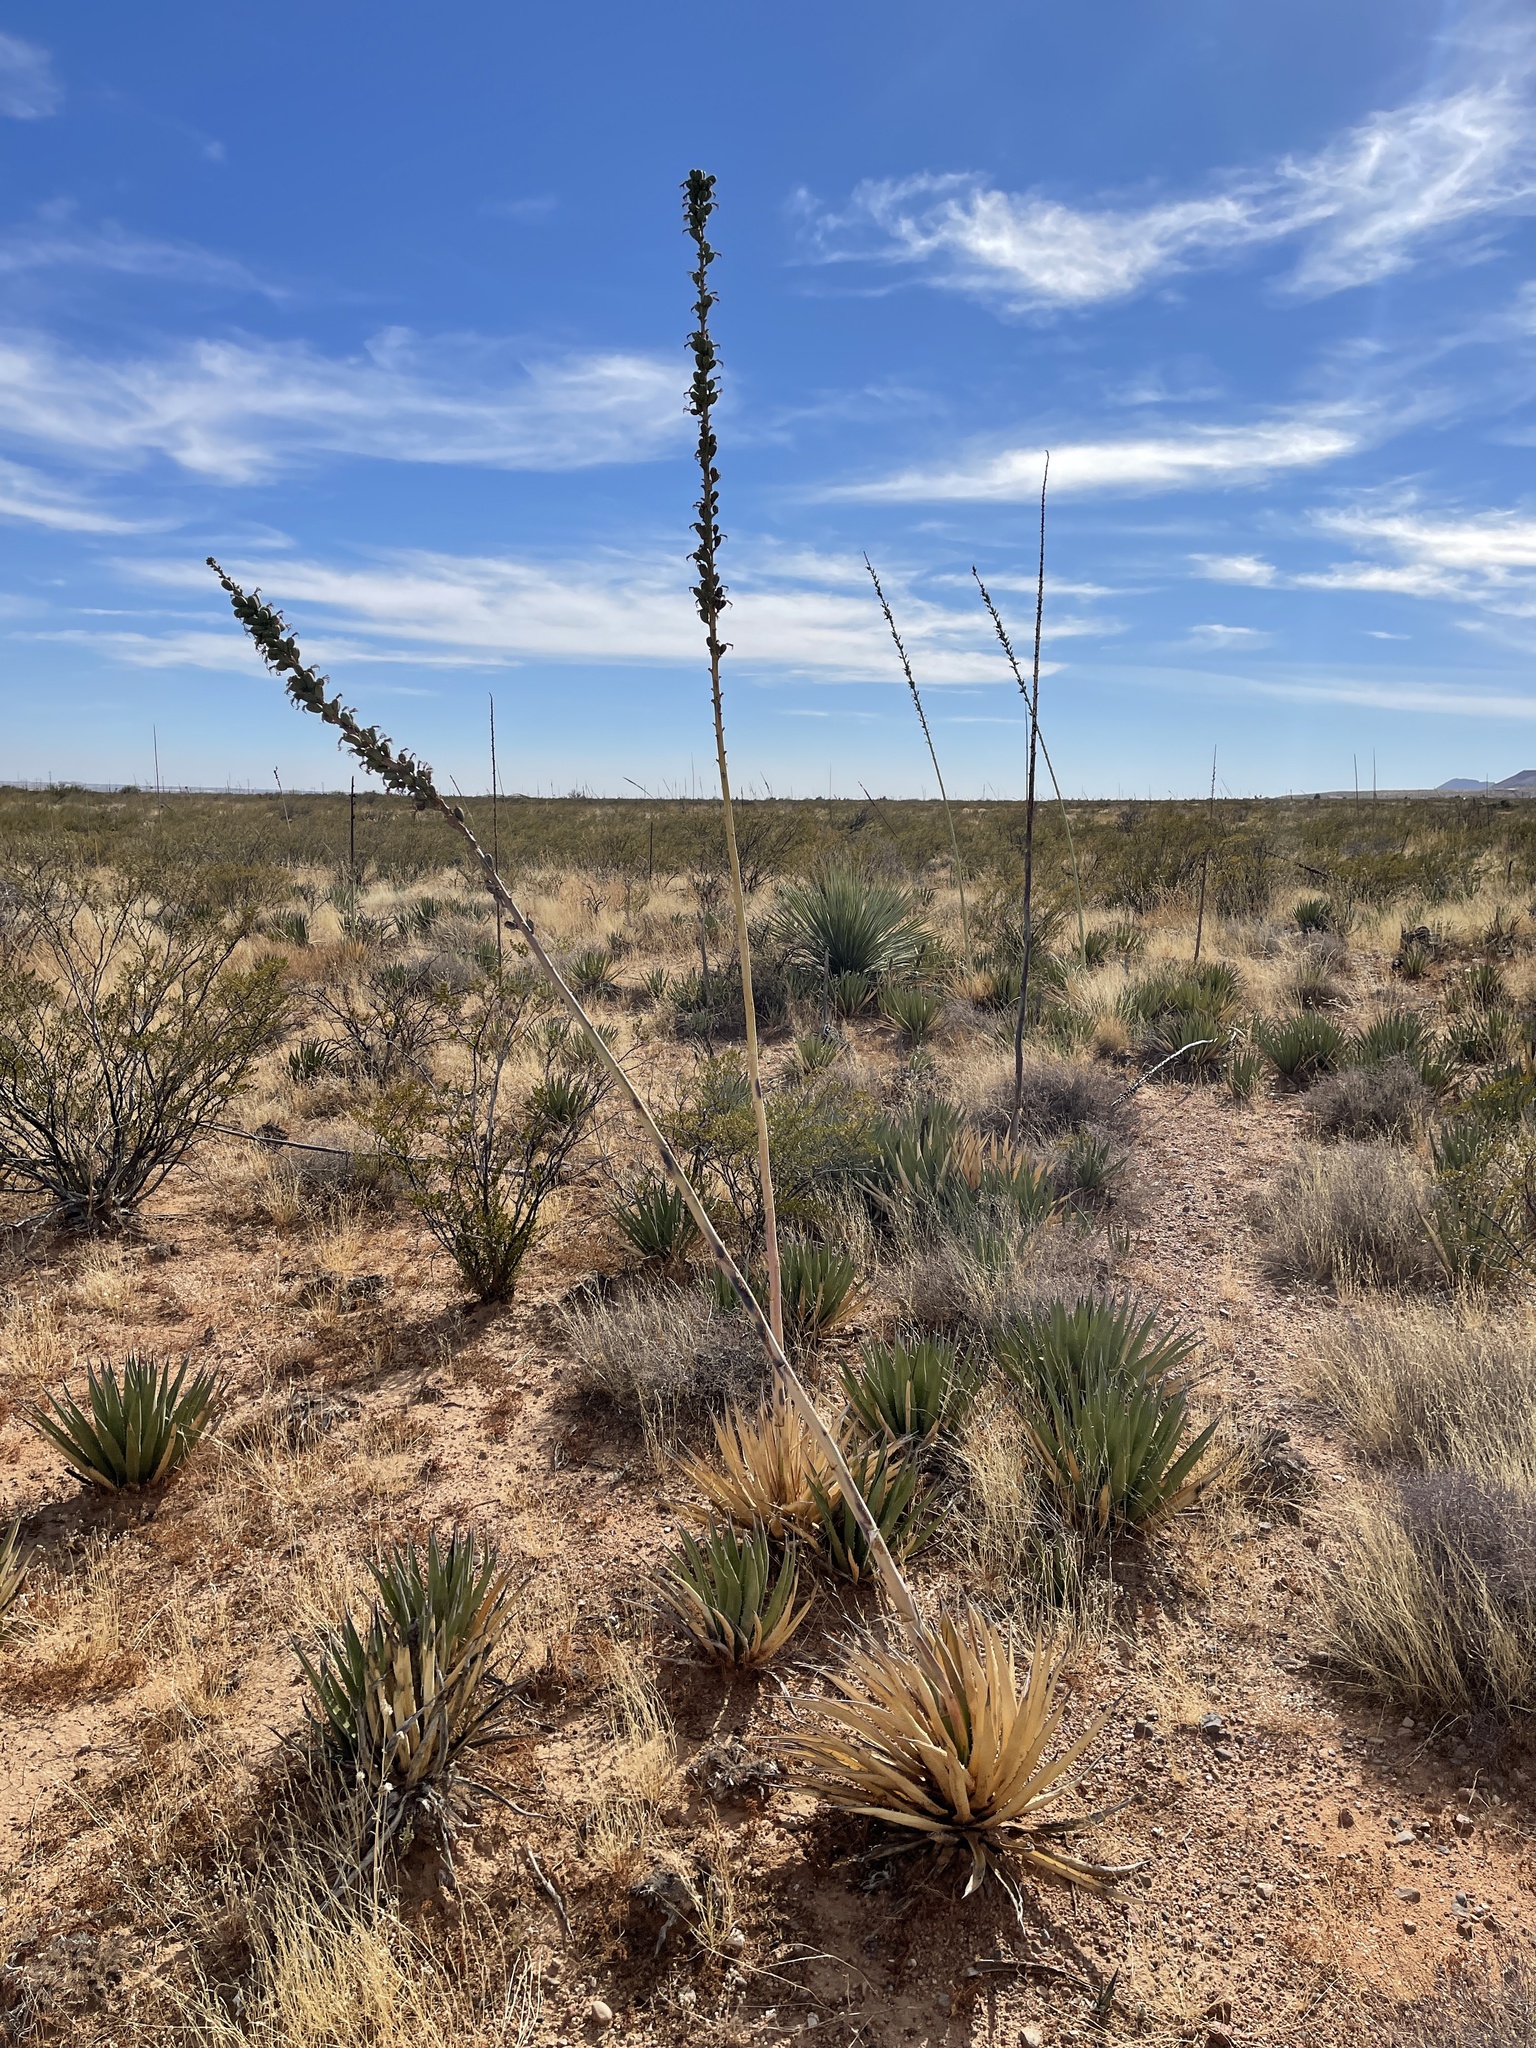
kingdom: Plantae
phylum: Tracheophyta
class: Liliopsida
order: Asparagales
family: Asparagaceae
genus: Agave
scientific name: Agave lechuguilla
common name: Lecheguilla agave
